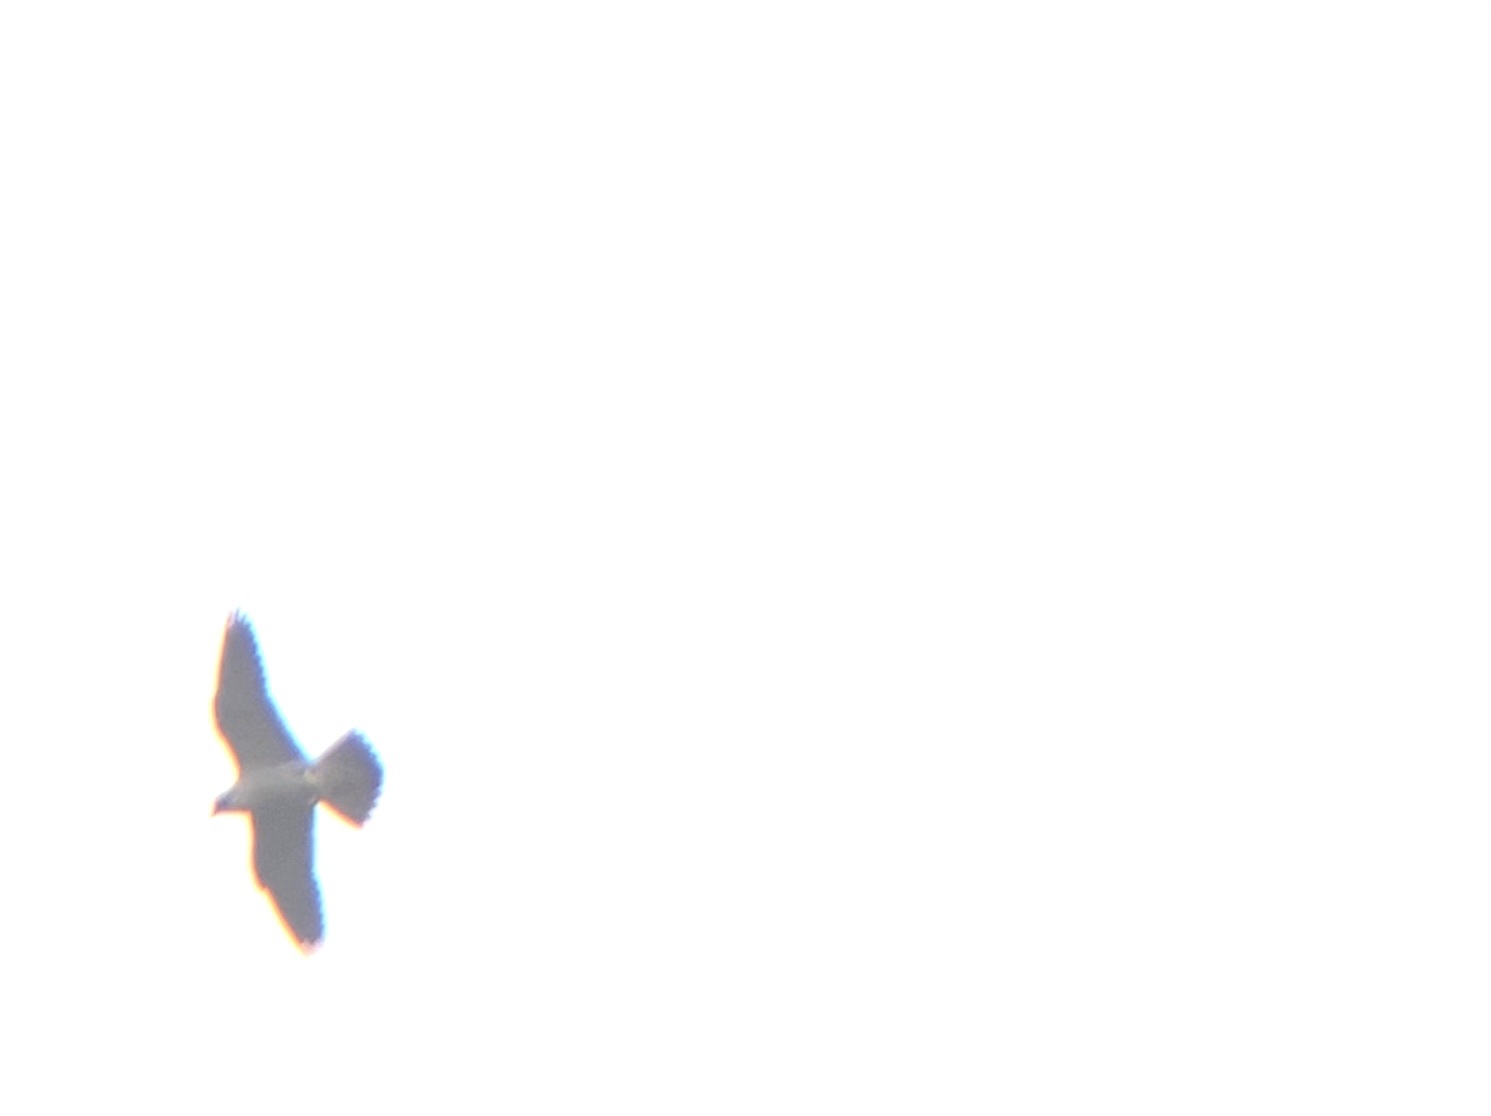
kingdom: Animalia
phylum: Chordata
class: Aves
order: Falconiformes
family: Falconidae
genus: Falco
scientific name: Falco peregrinus
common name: Peregrine falcon
